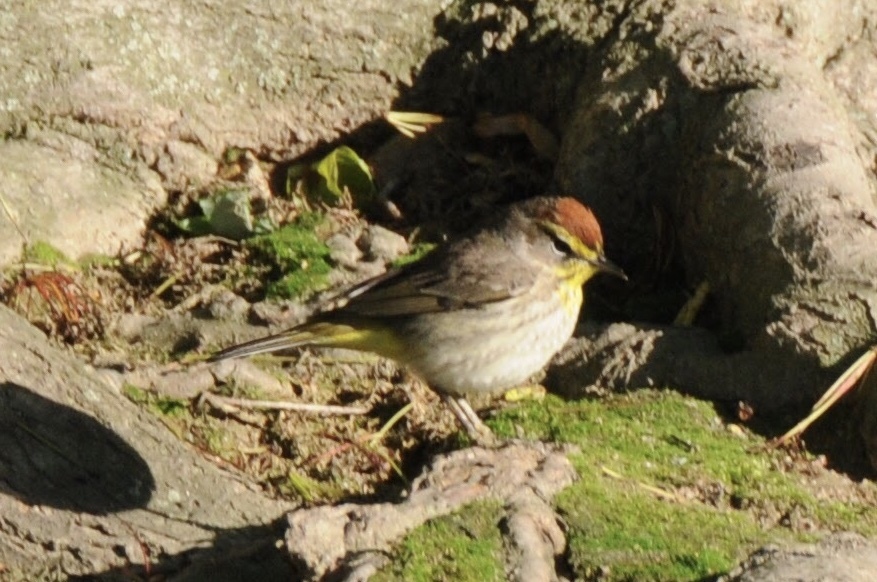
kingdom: Animalia
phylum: Chordata
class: Aves
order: Passeriformes
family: Parulidae
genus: Setophaga
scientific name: Setophaga palmarum
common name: Palm warbler
